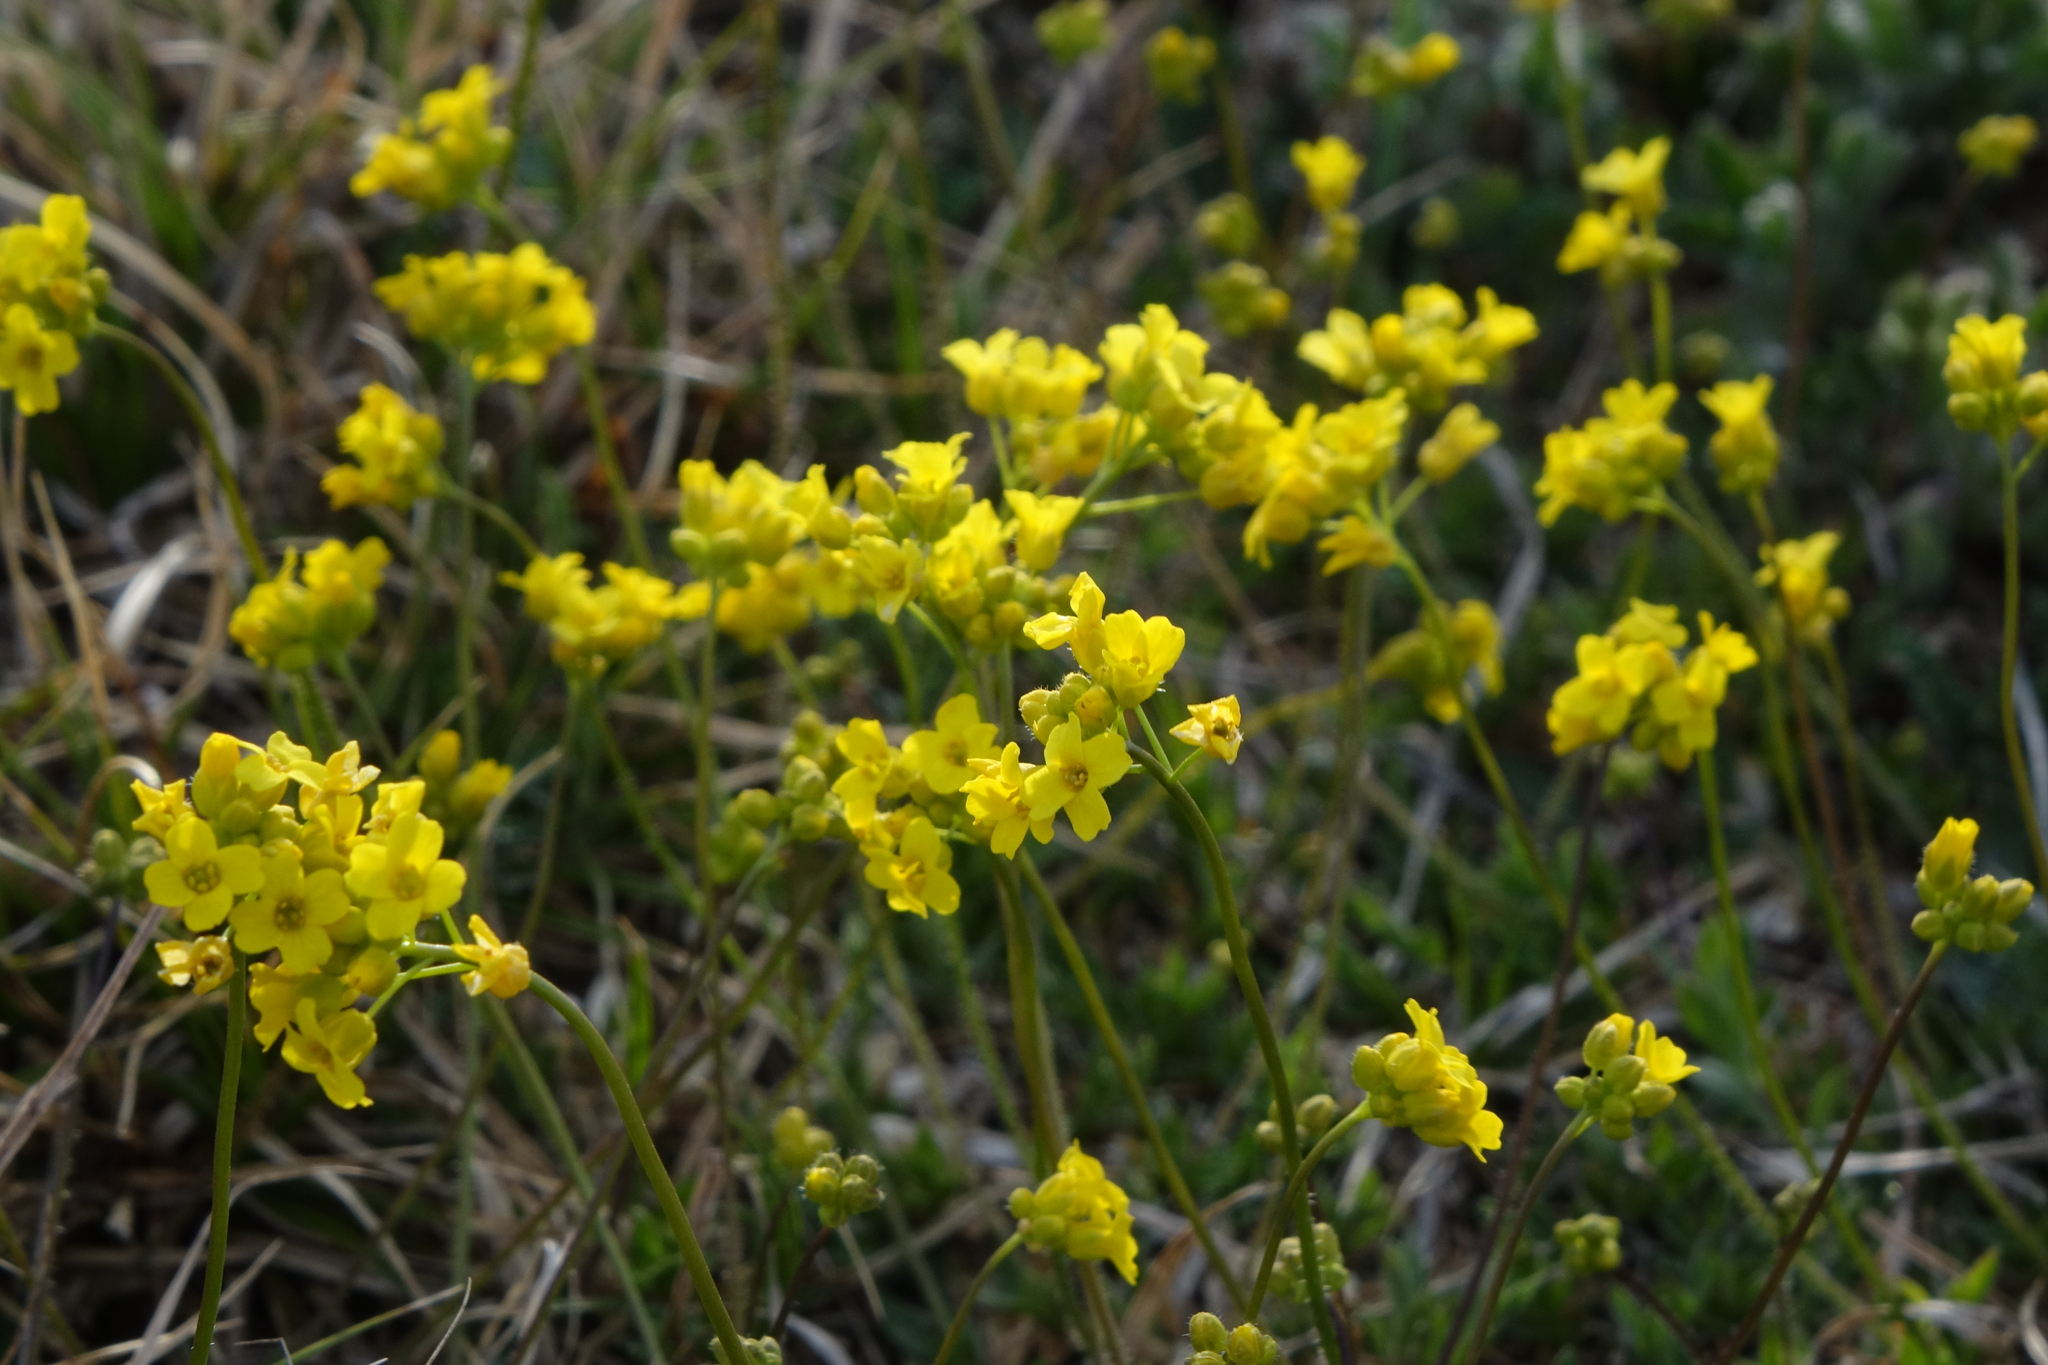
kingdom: Plantae
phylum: Tracheophyta
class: Magnoliopsida
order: Brassicales
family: Brassicaceae
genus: Draba
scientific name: Draba sibirica
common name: Siberian draba
